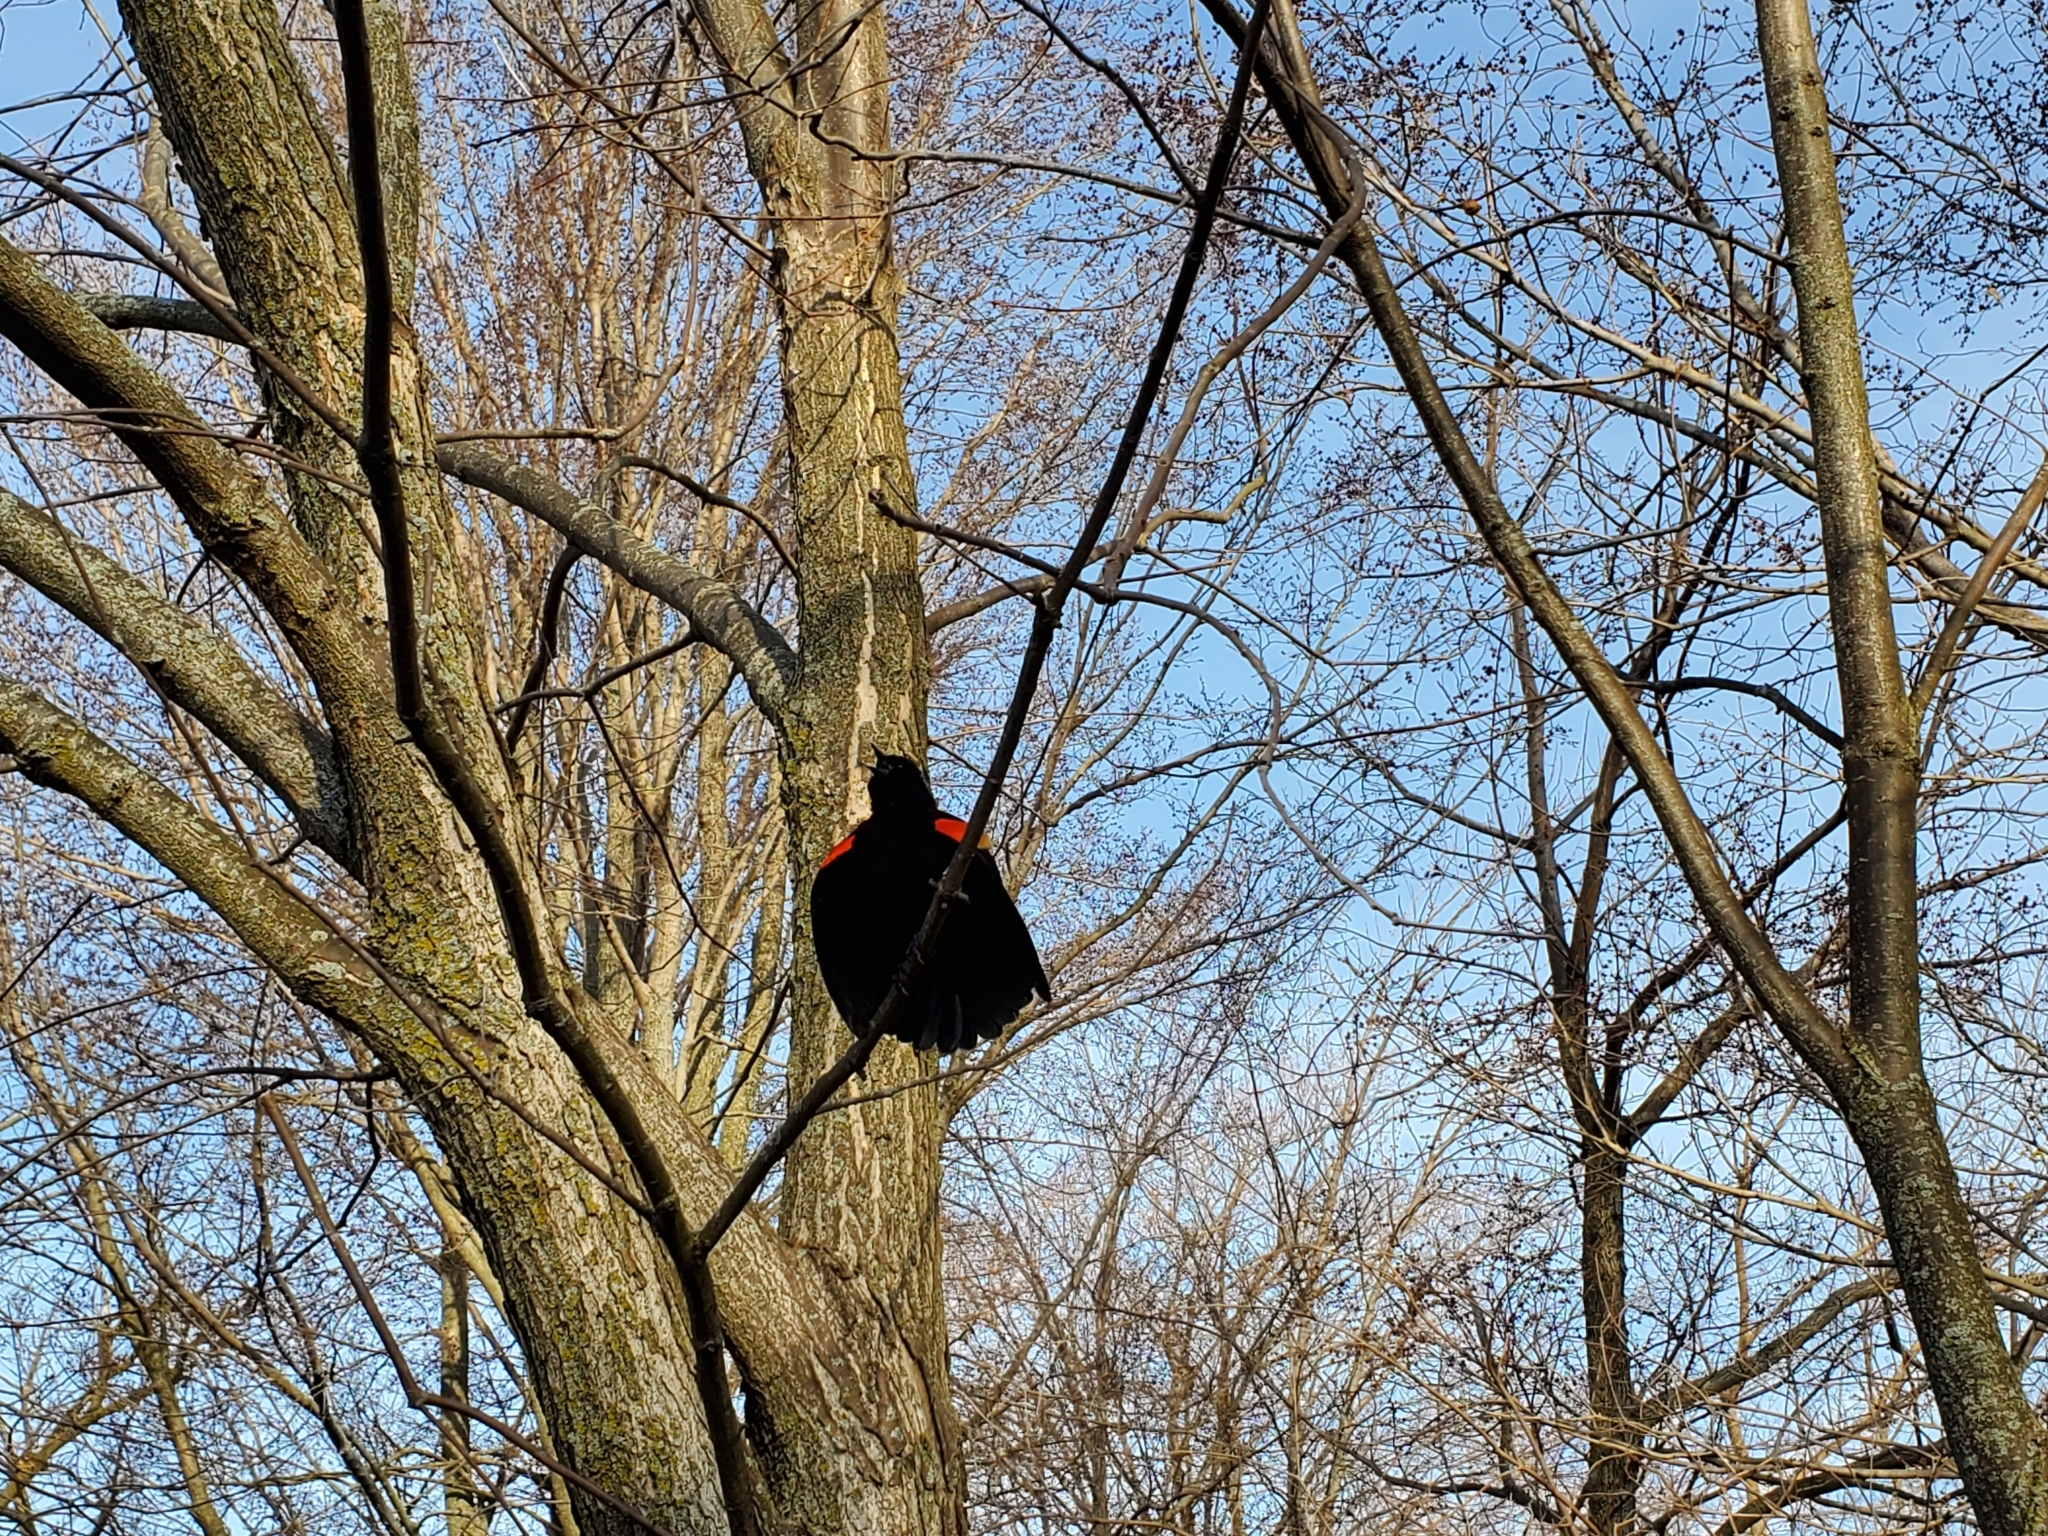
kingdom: Animalia
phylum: Chordata
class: Aves
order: Passeriformes
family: Icteridae
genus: Agelaius
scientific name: Agelaius phoeniceus
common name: Red-winged blackbird
